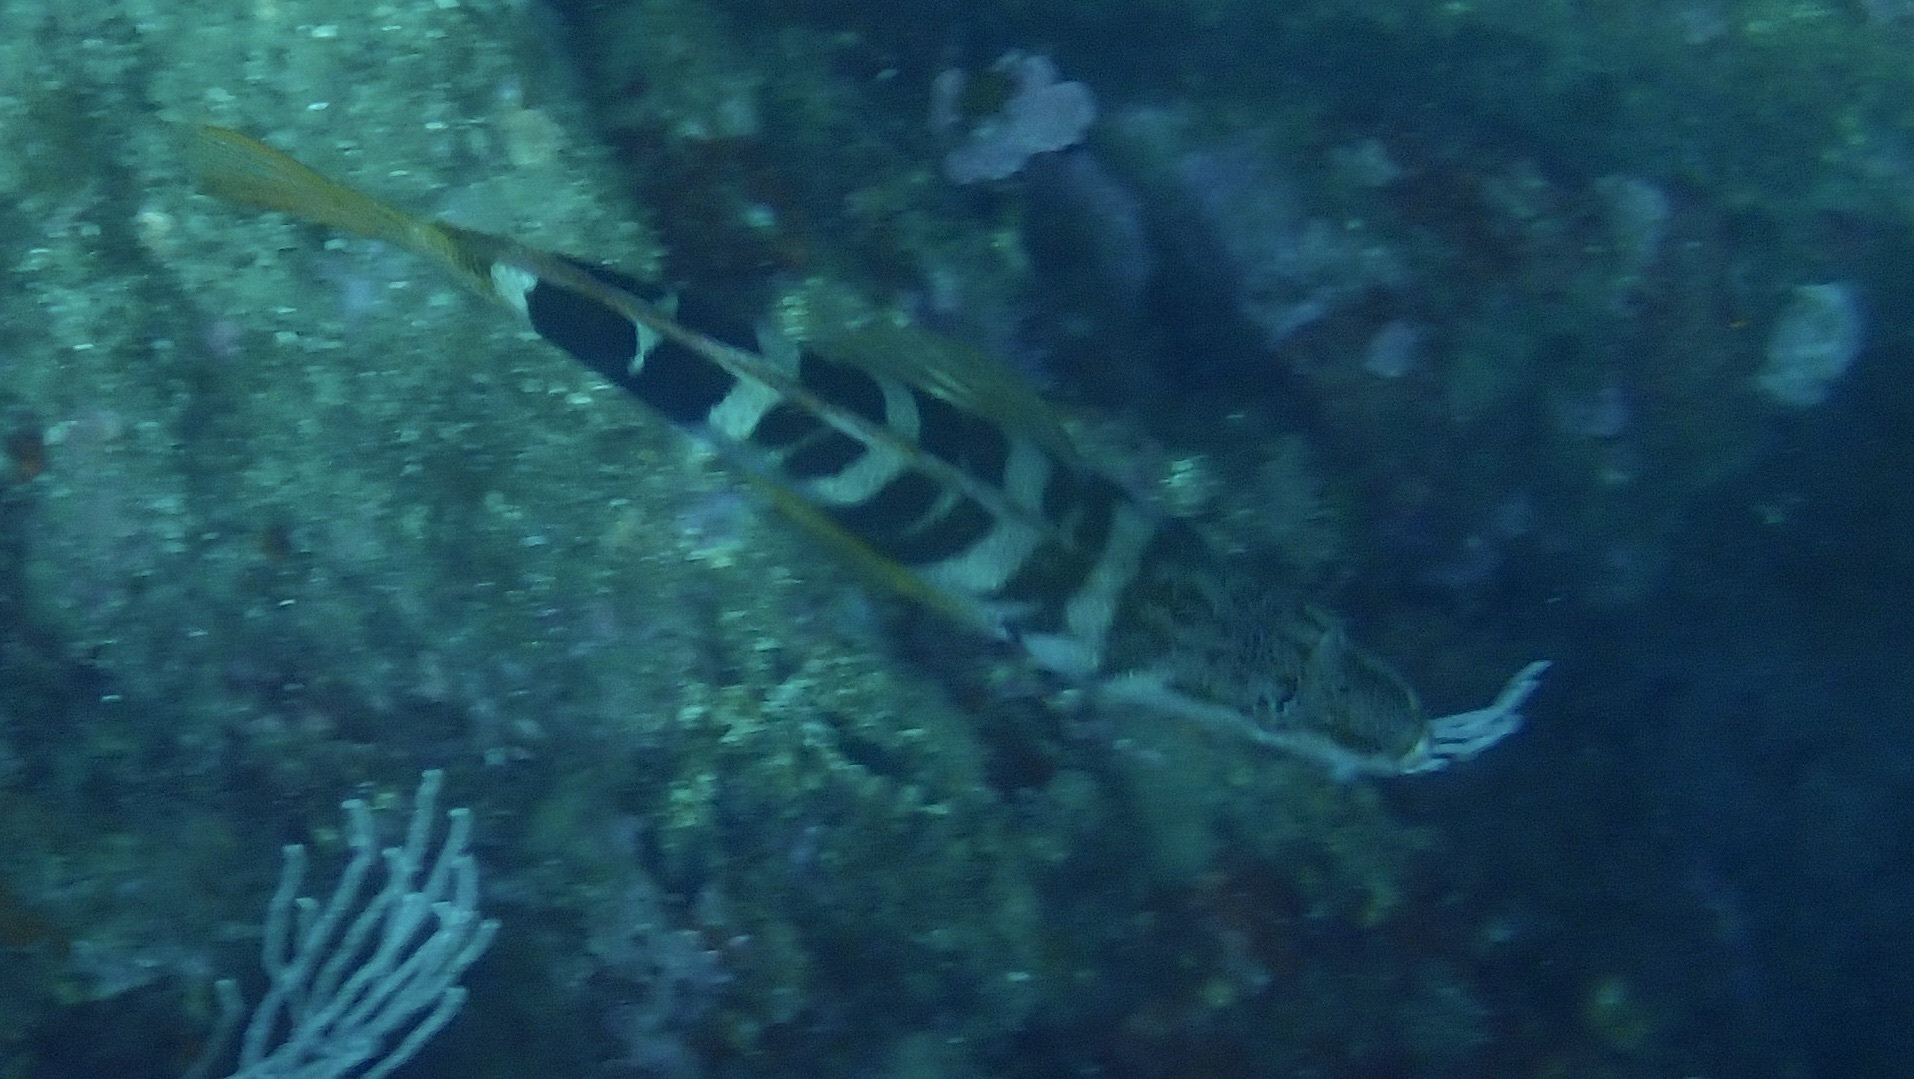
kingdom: Animalia
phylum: Chordata
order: Perciformes
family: Serranidae
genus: Serranus
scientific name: Serranus scriba
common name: Painted comber
